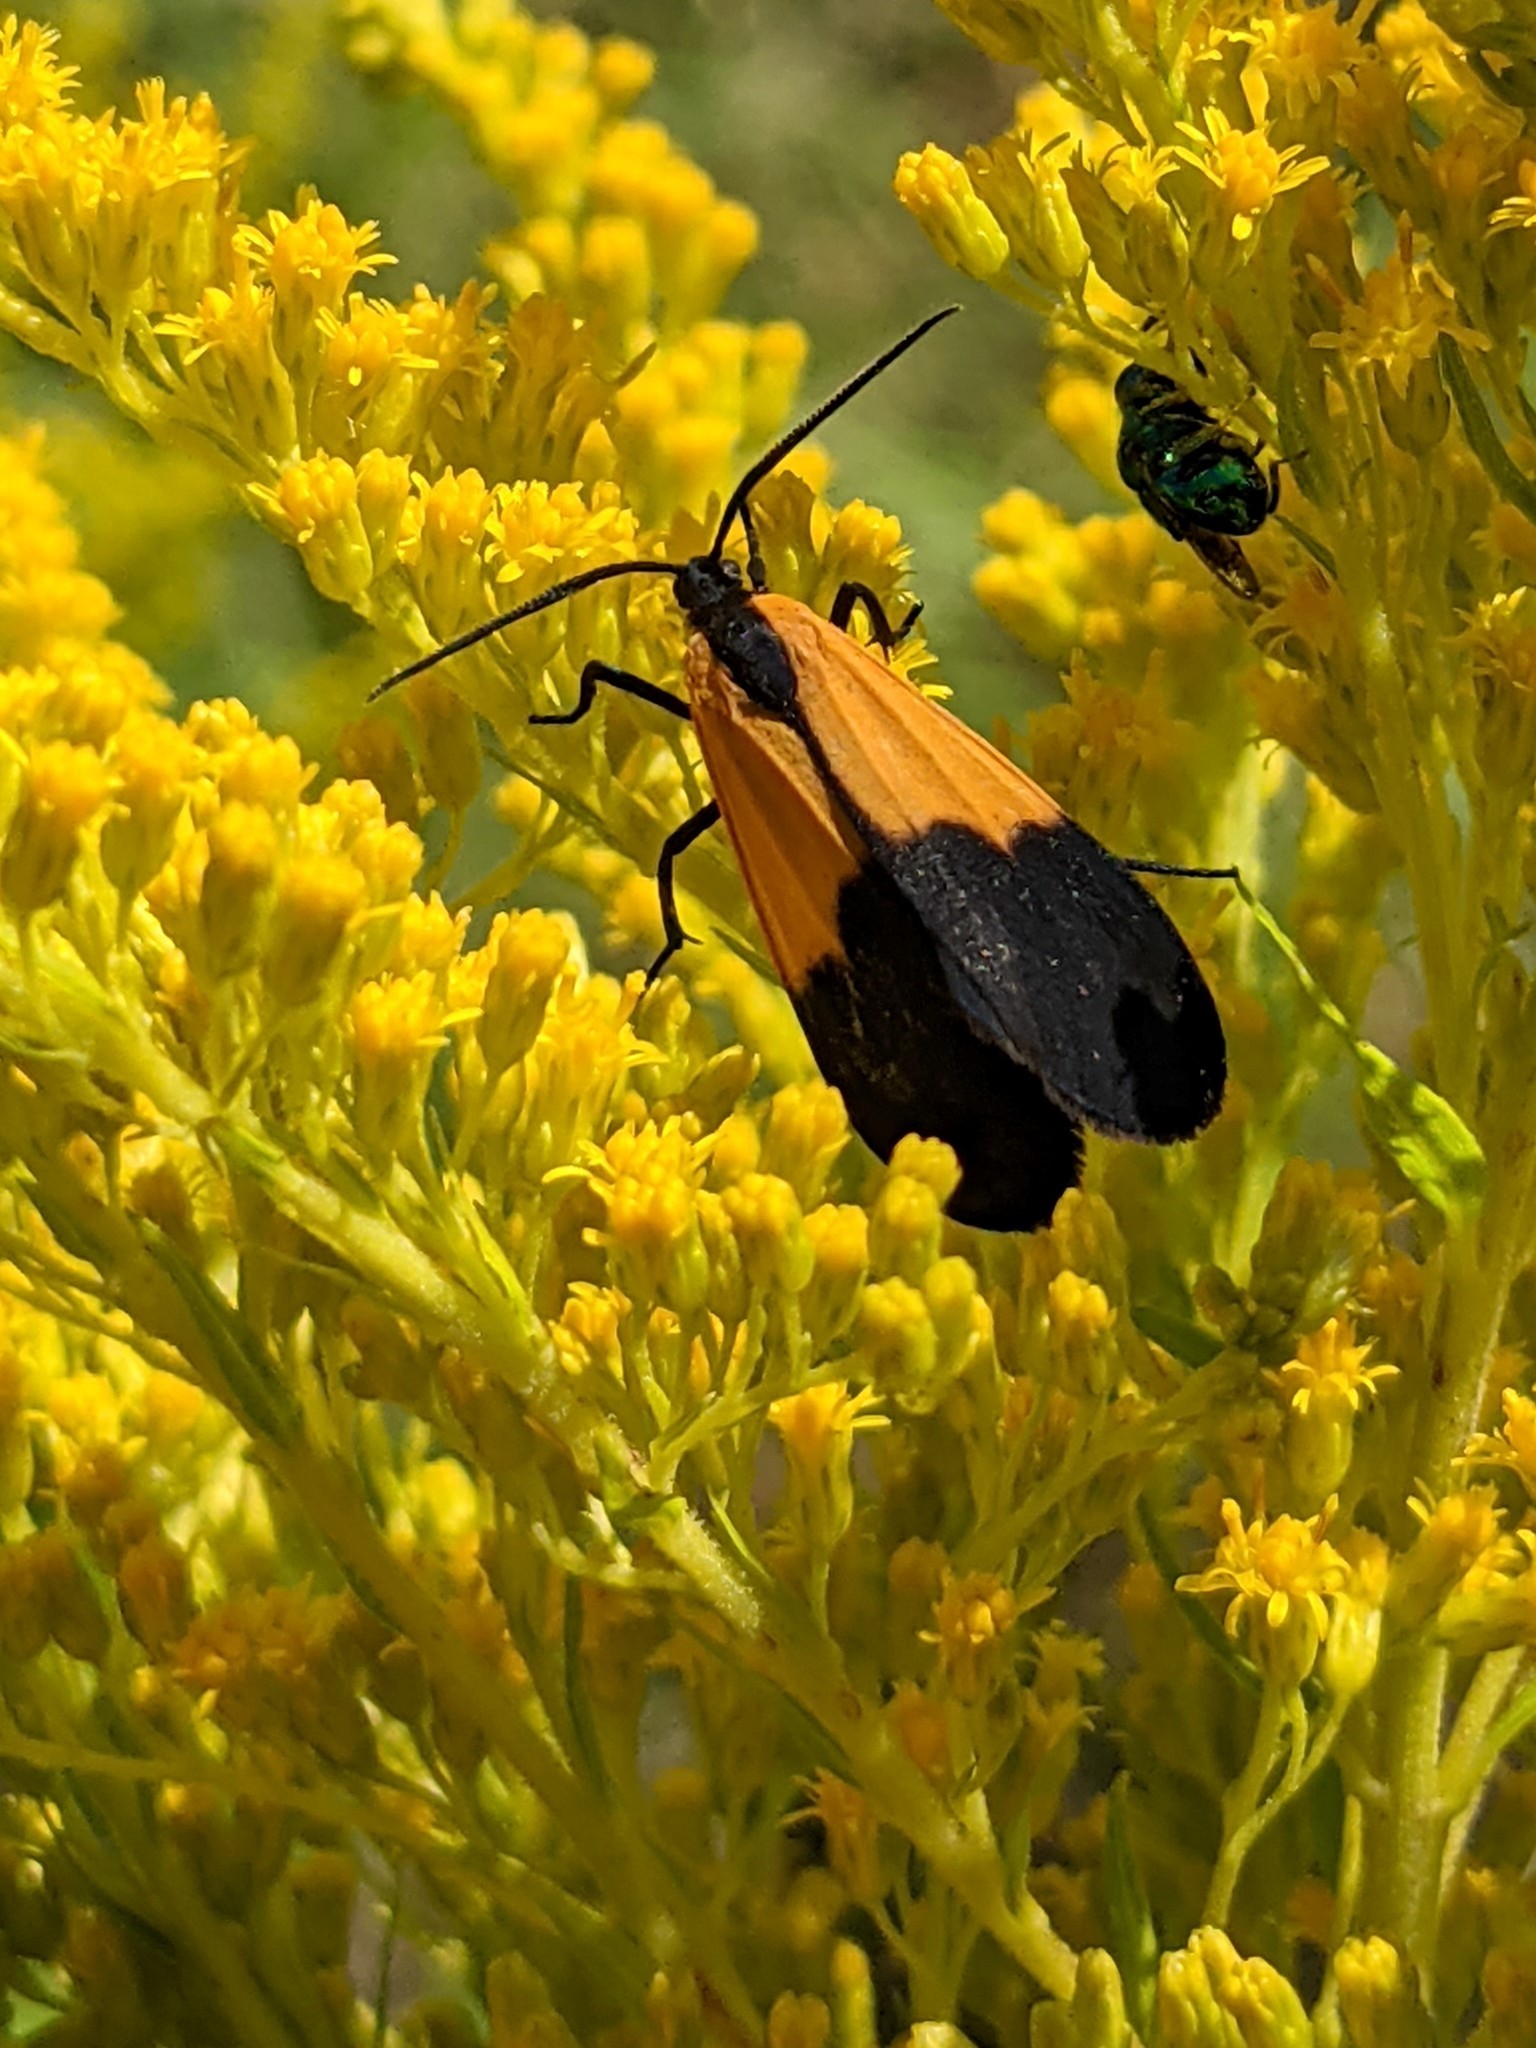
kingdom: Animalia
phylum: Arthropoda
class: Insecta
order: Lepidoptera
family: Erebidae
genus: Lycomorpha
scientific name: Lycomorpha pholus
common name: Black-and-yellow lichen moth
